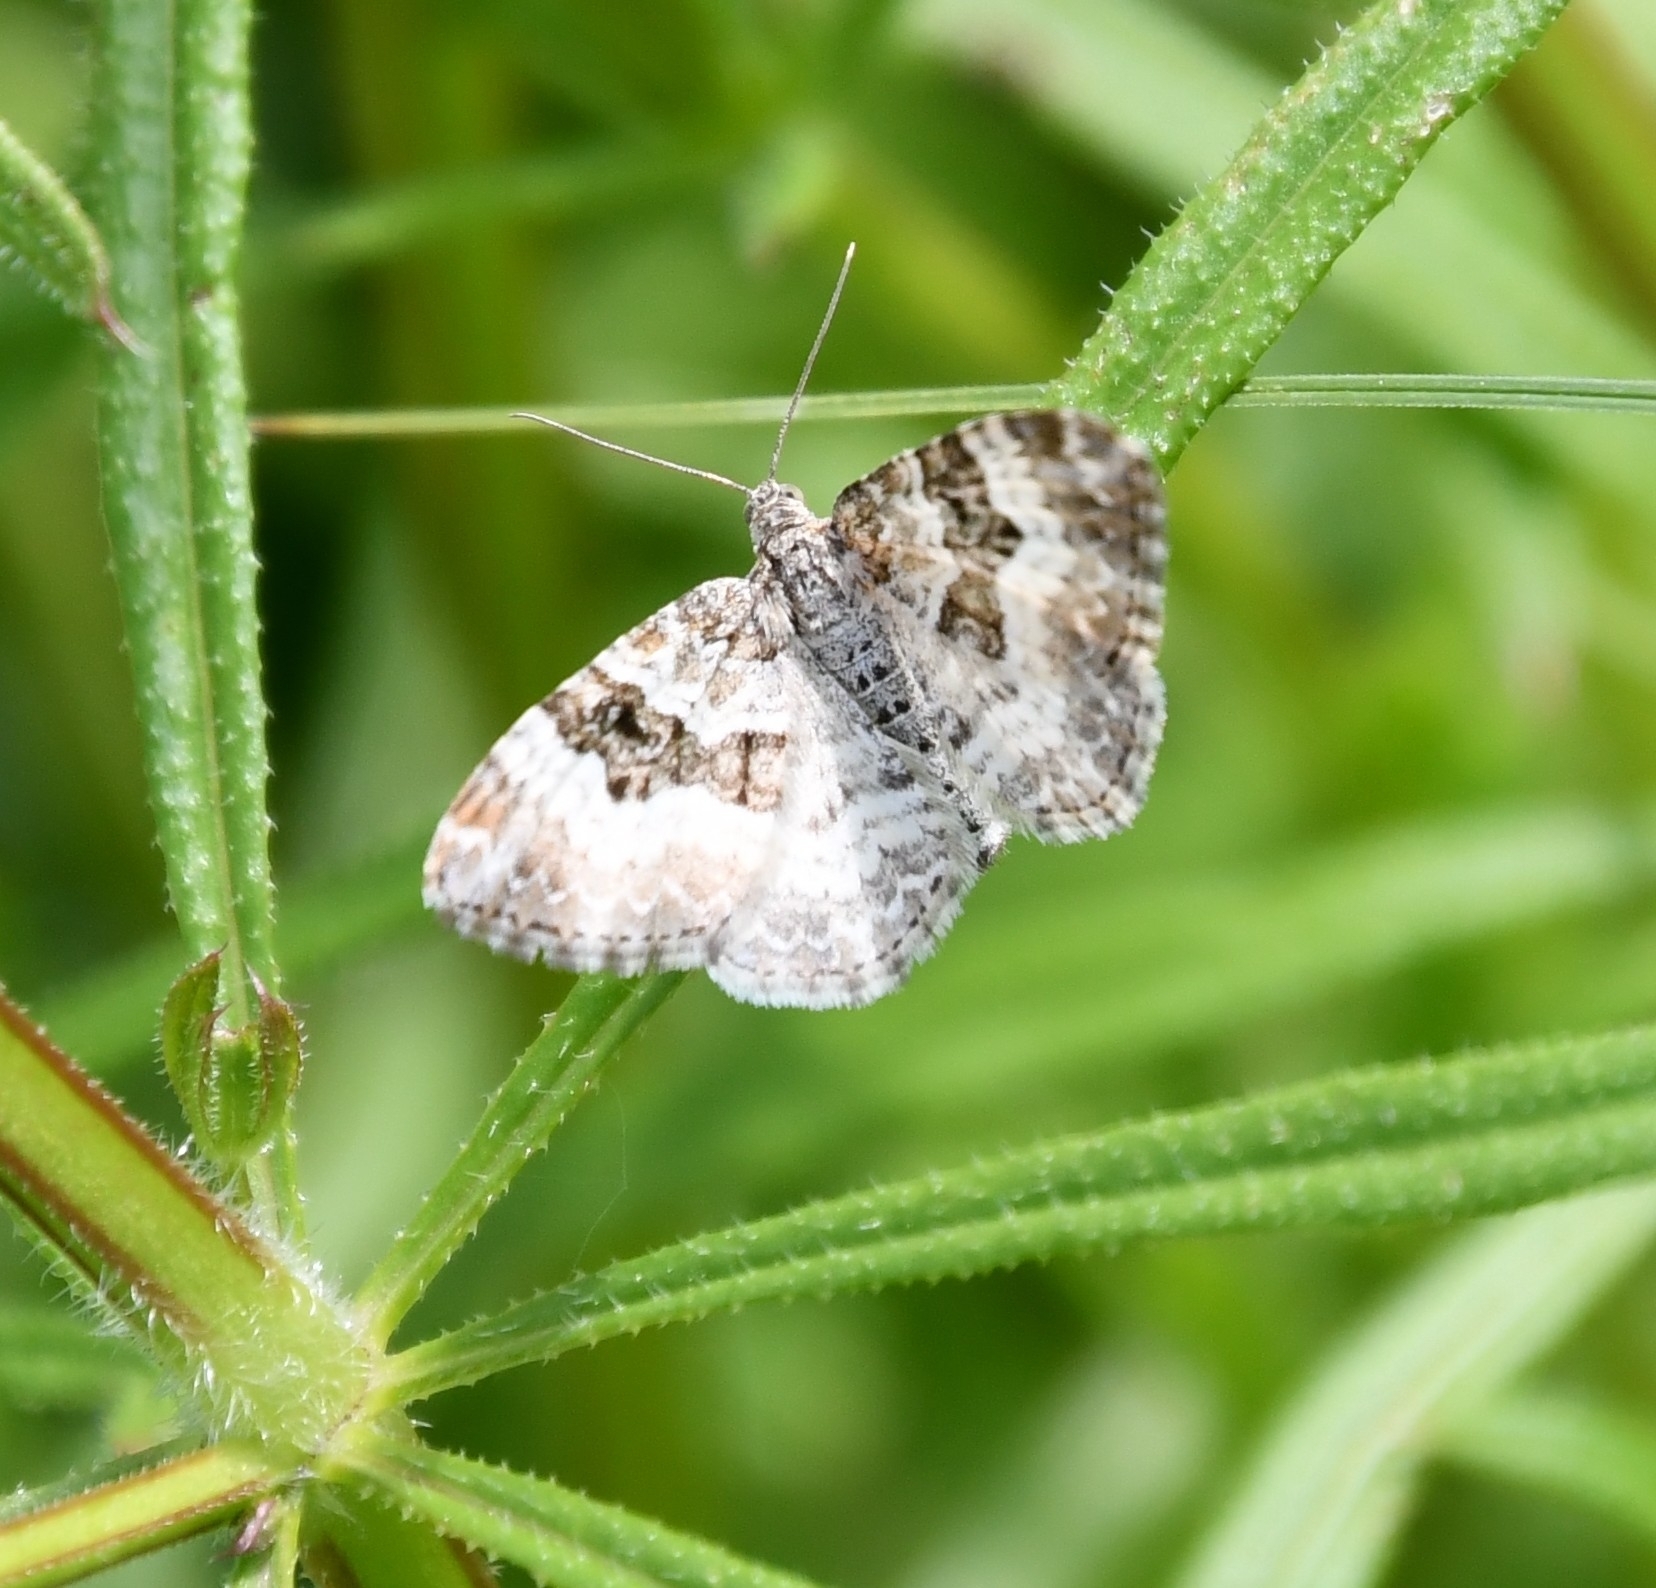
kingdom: Animalia
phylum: Arthropoda
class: Insecta
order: Lepidoptera
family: Geometridae
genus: Epirrhoe
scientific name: Epirrhoe alternata
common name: Common carpet
